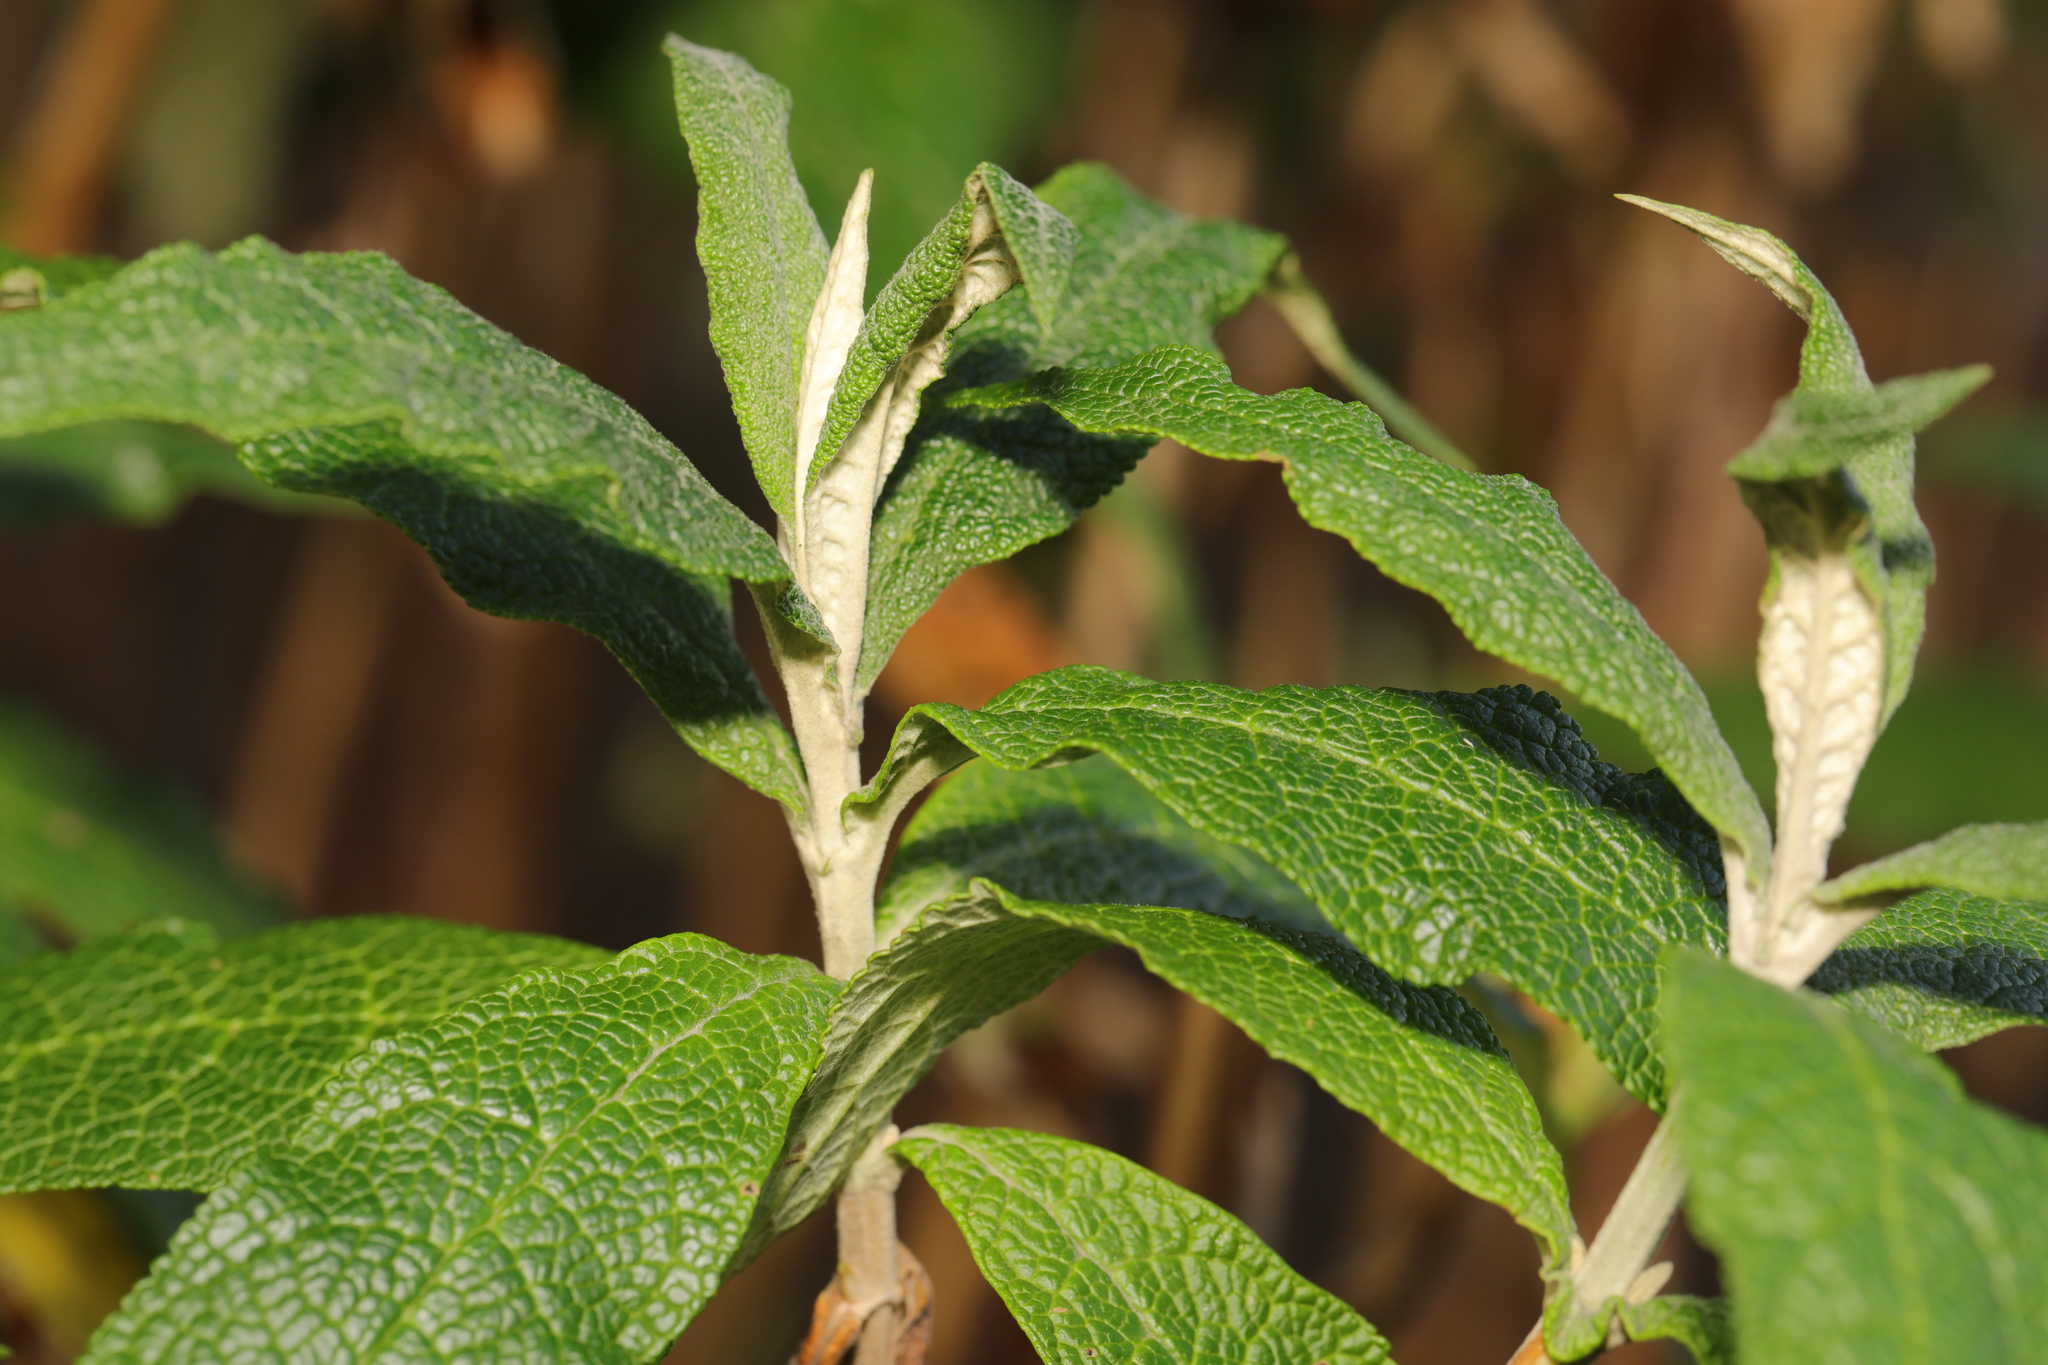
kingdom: Plantae
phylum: Tracheophyta
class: Magnoliopsida
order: Lamiales
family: Scrophulariaceae
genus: Buddleja
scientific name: Buddleja davidii
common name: Butterfly-bush
